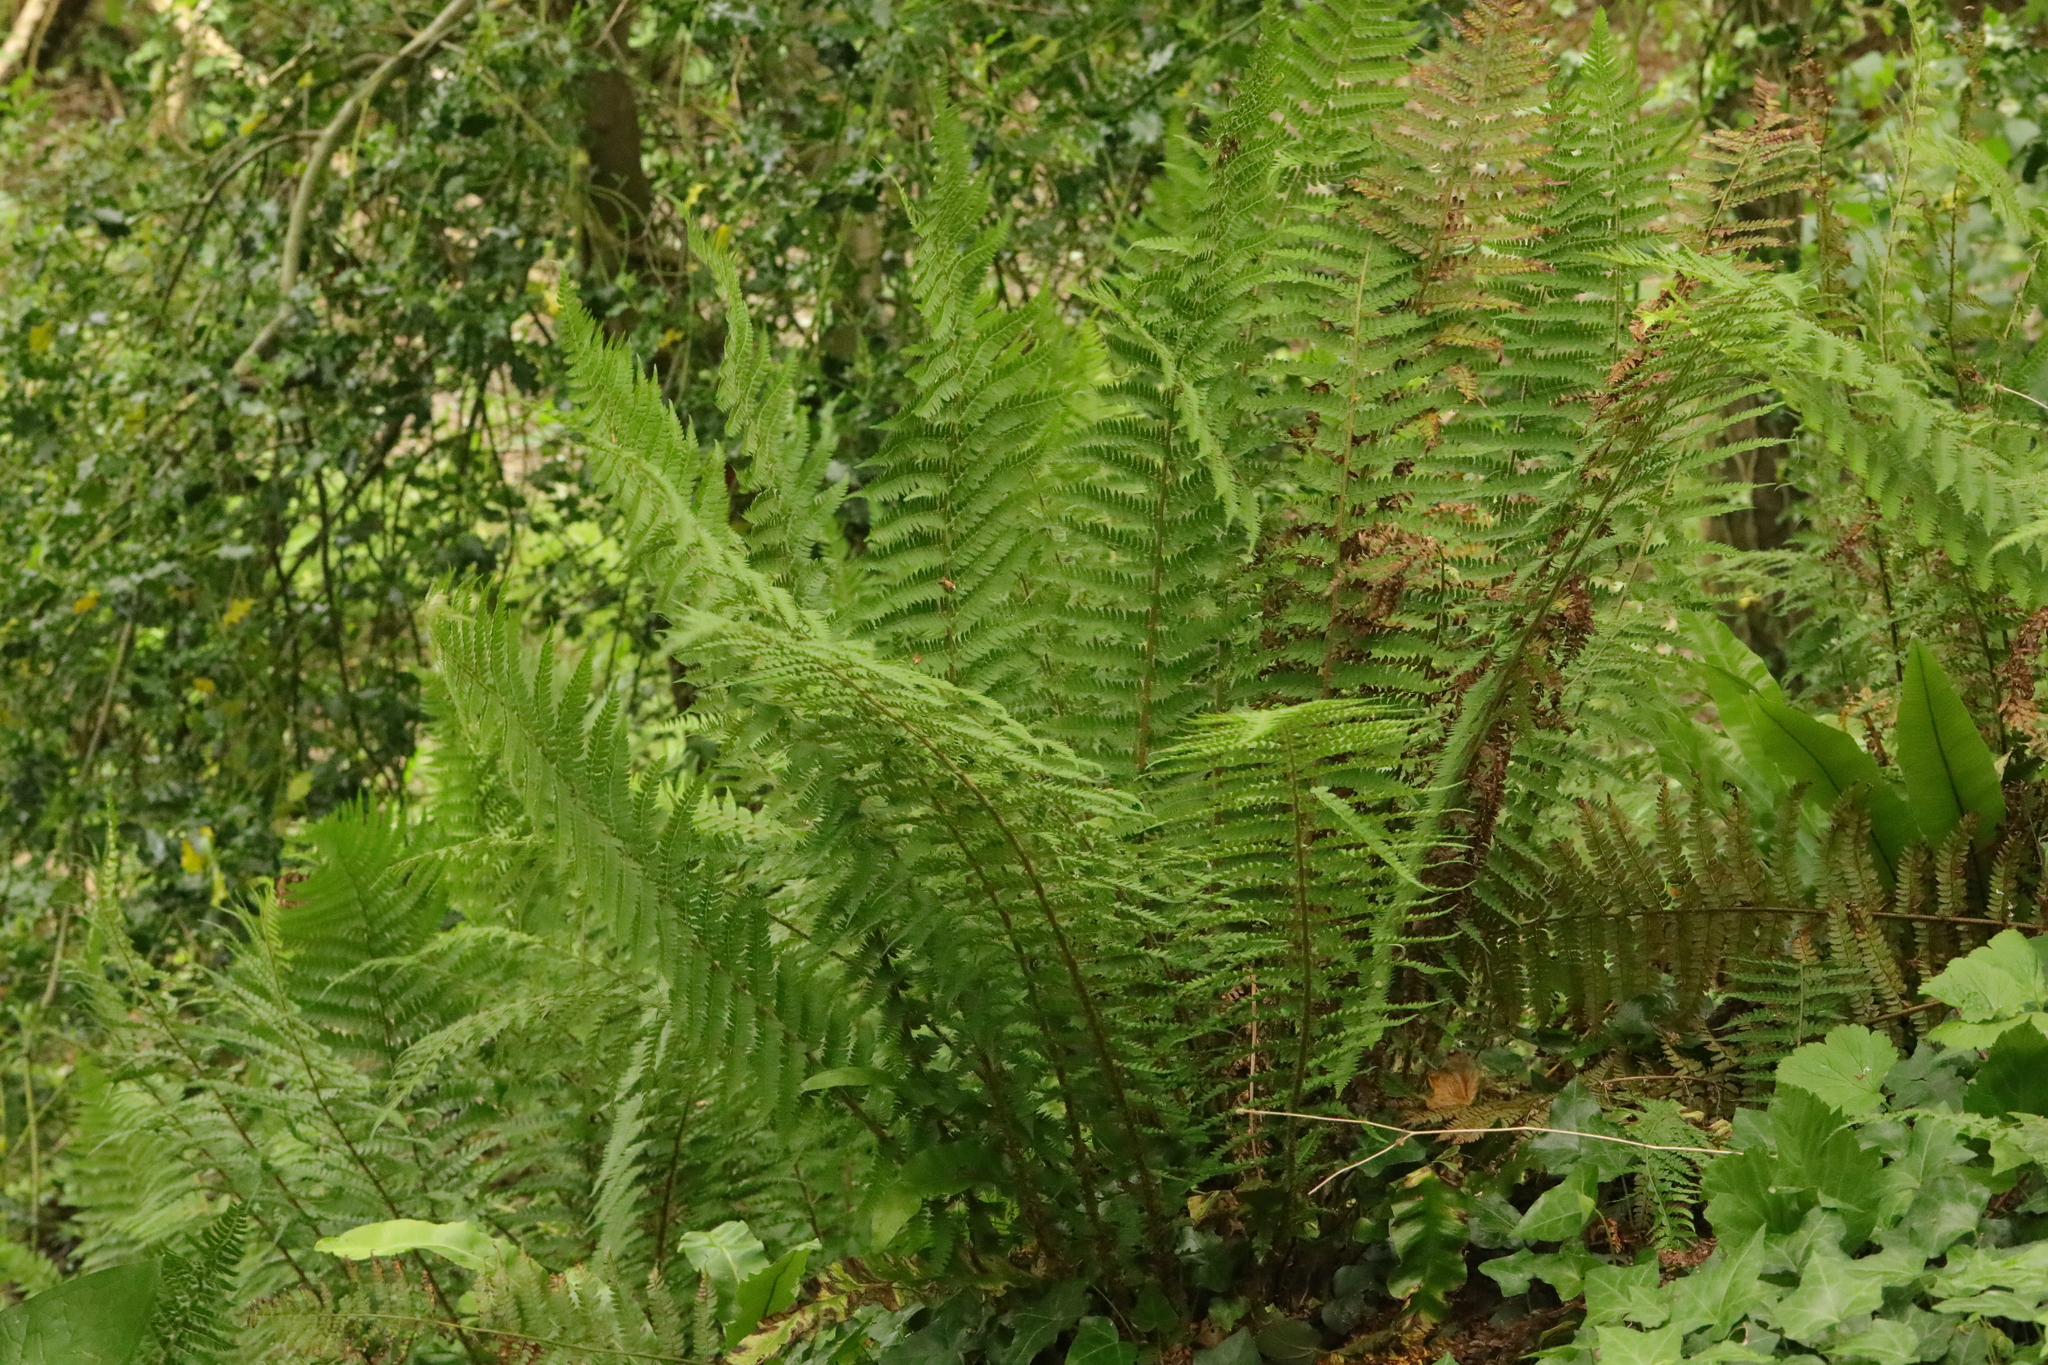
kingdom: Plantae
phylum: Tracheophyta
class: Polypodiopsida
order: Polypodiales
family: Dryopteridaceae
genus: Polystichum
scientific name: Polystichum setiferum
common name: Soft shield-fern
